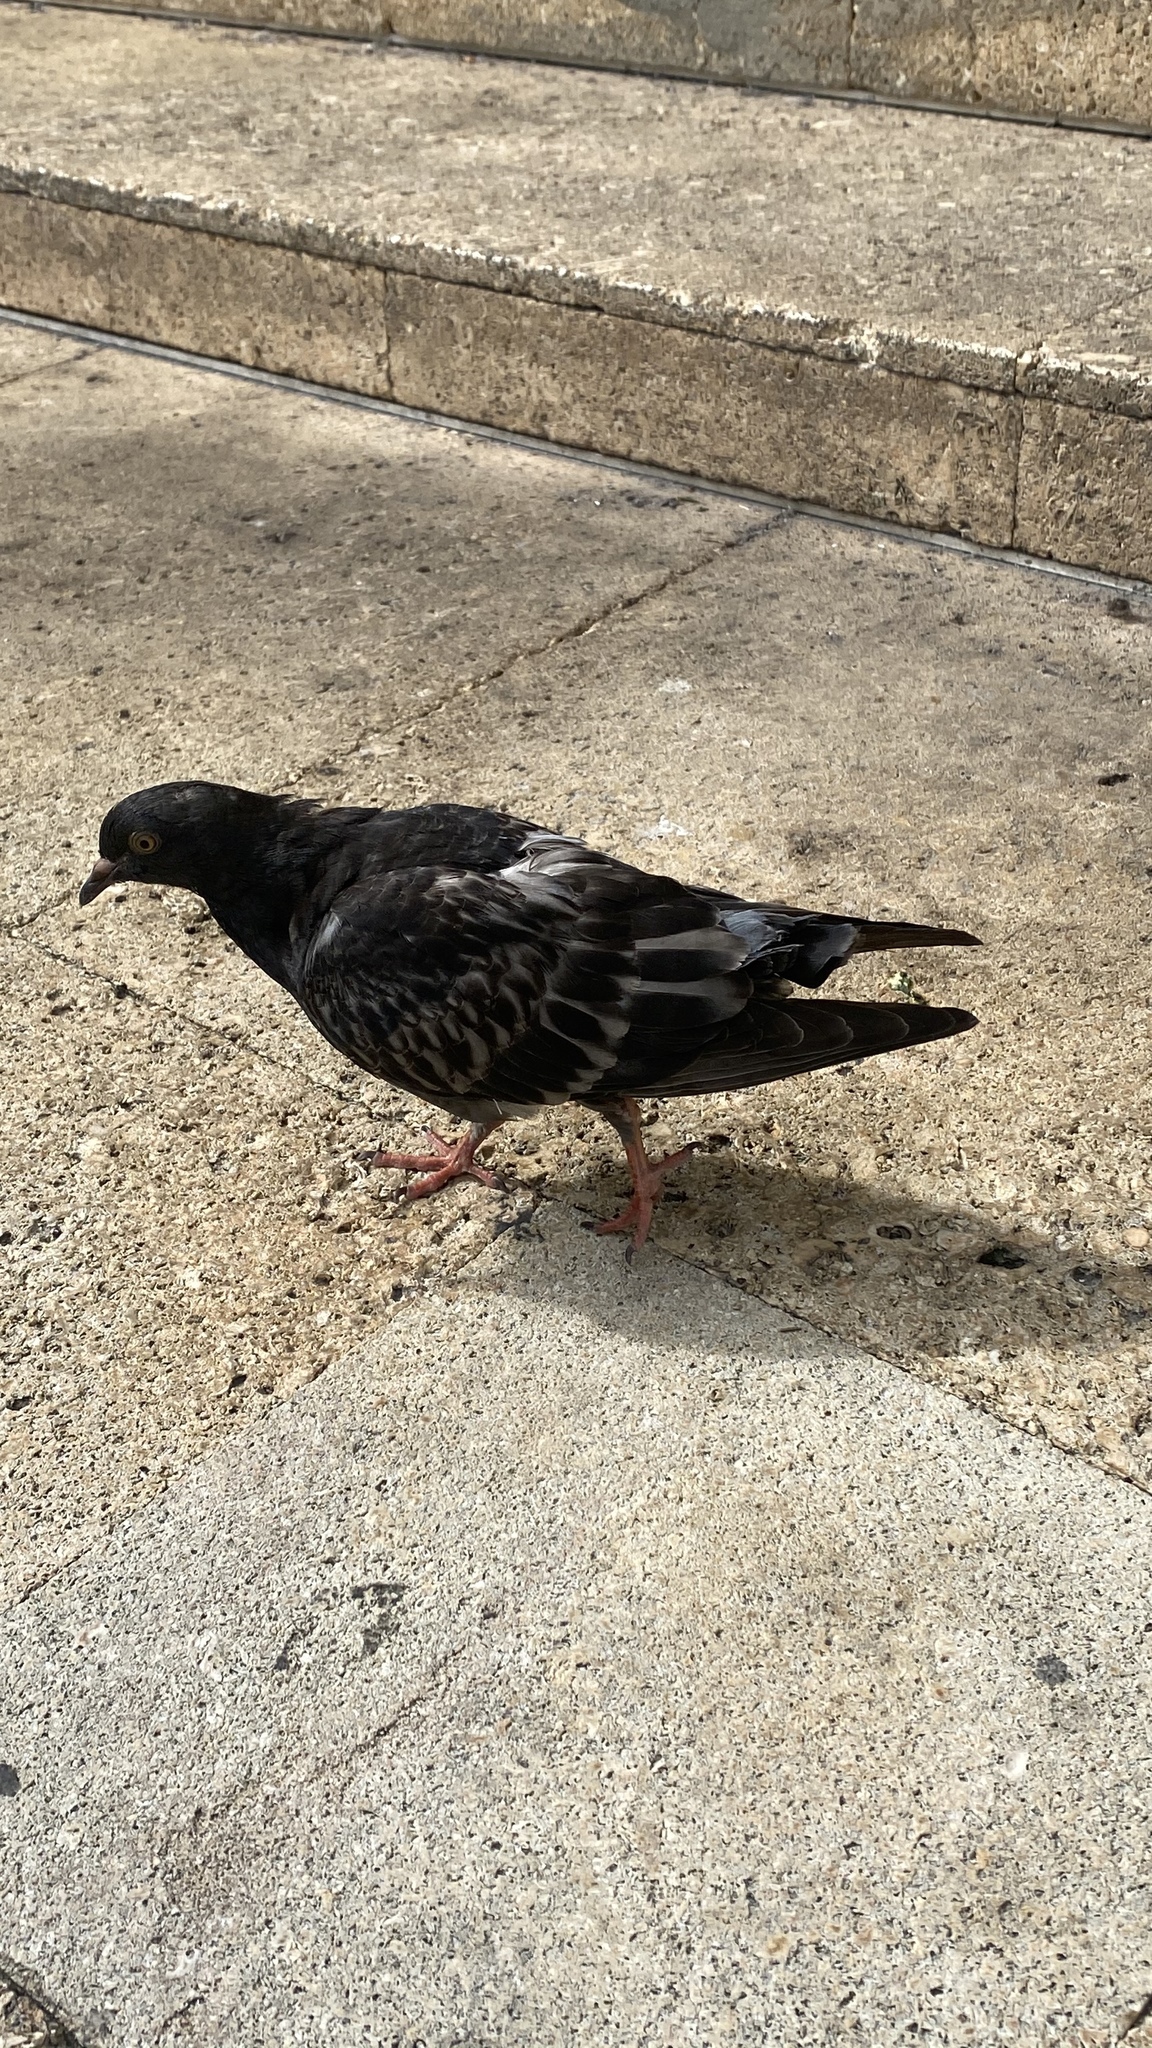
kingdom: Animalia
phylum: Chordata
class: Aves
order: Columbiformes
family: Columbidae
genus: Columba
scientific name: Columba livia
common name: Rock pigeon
